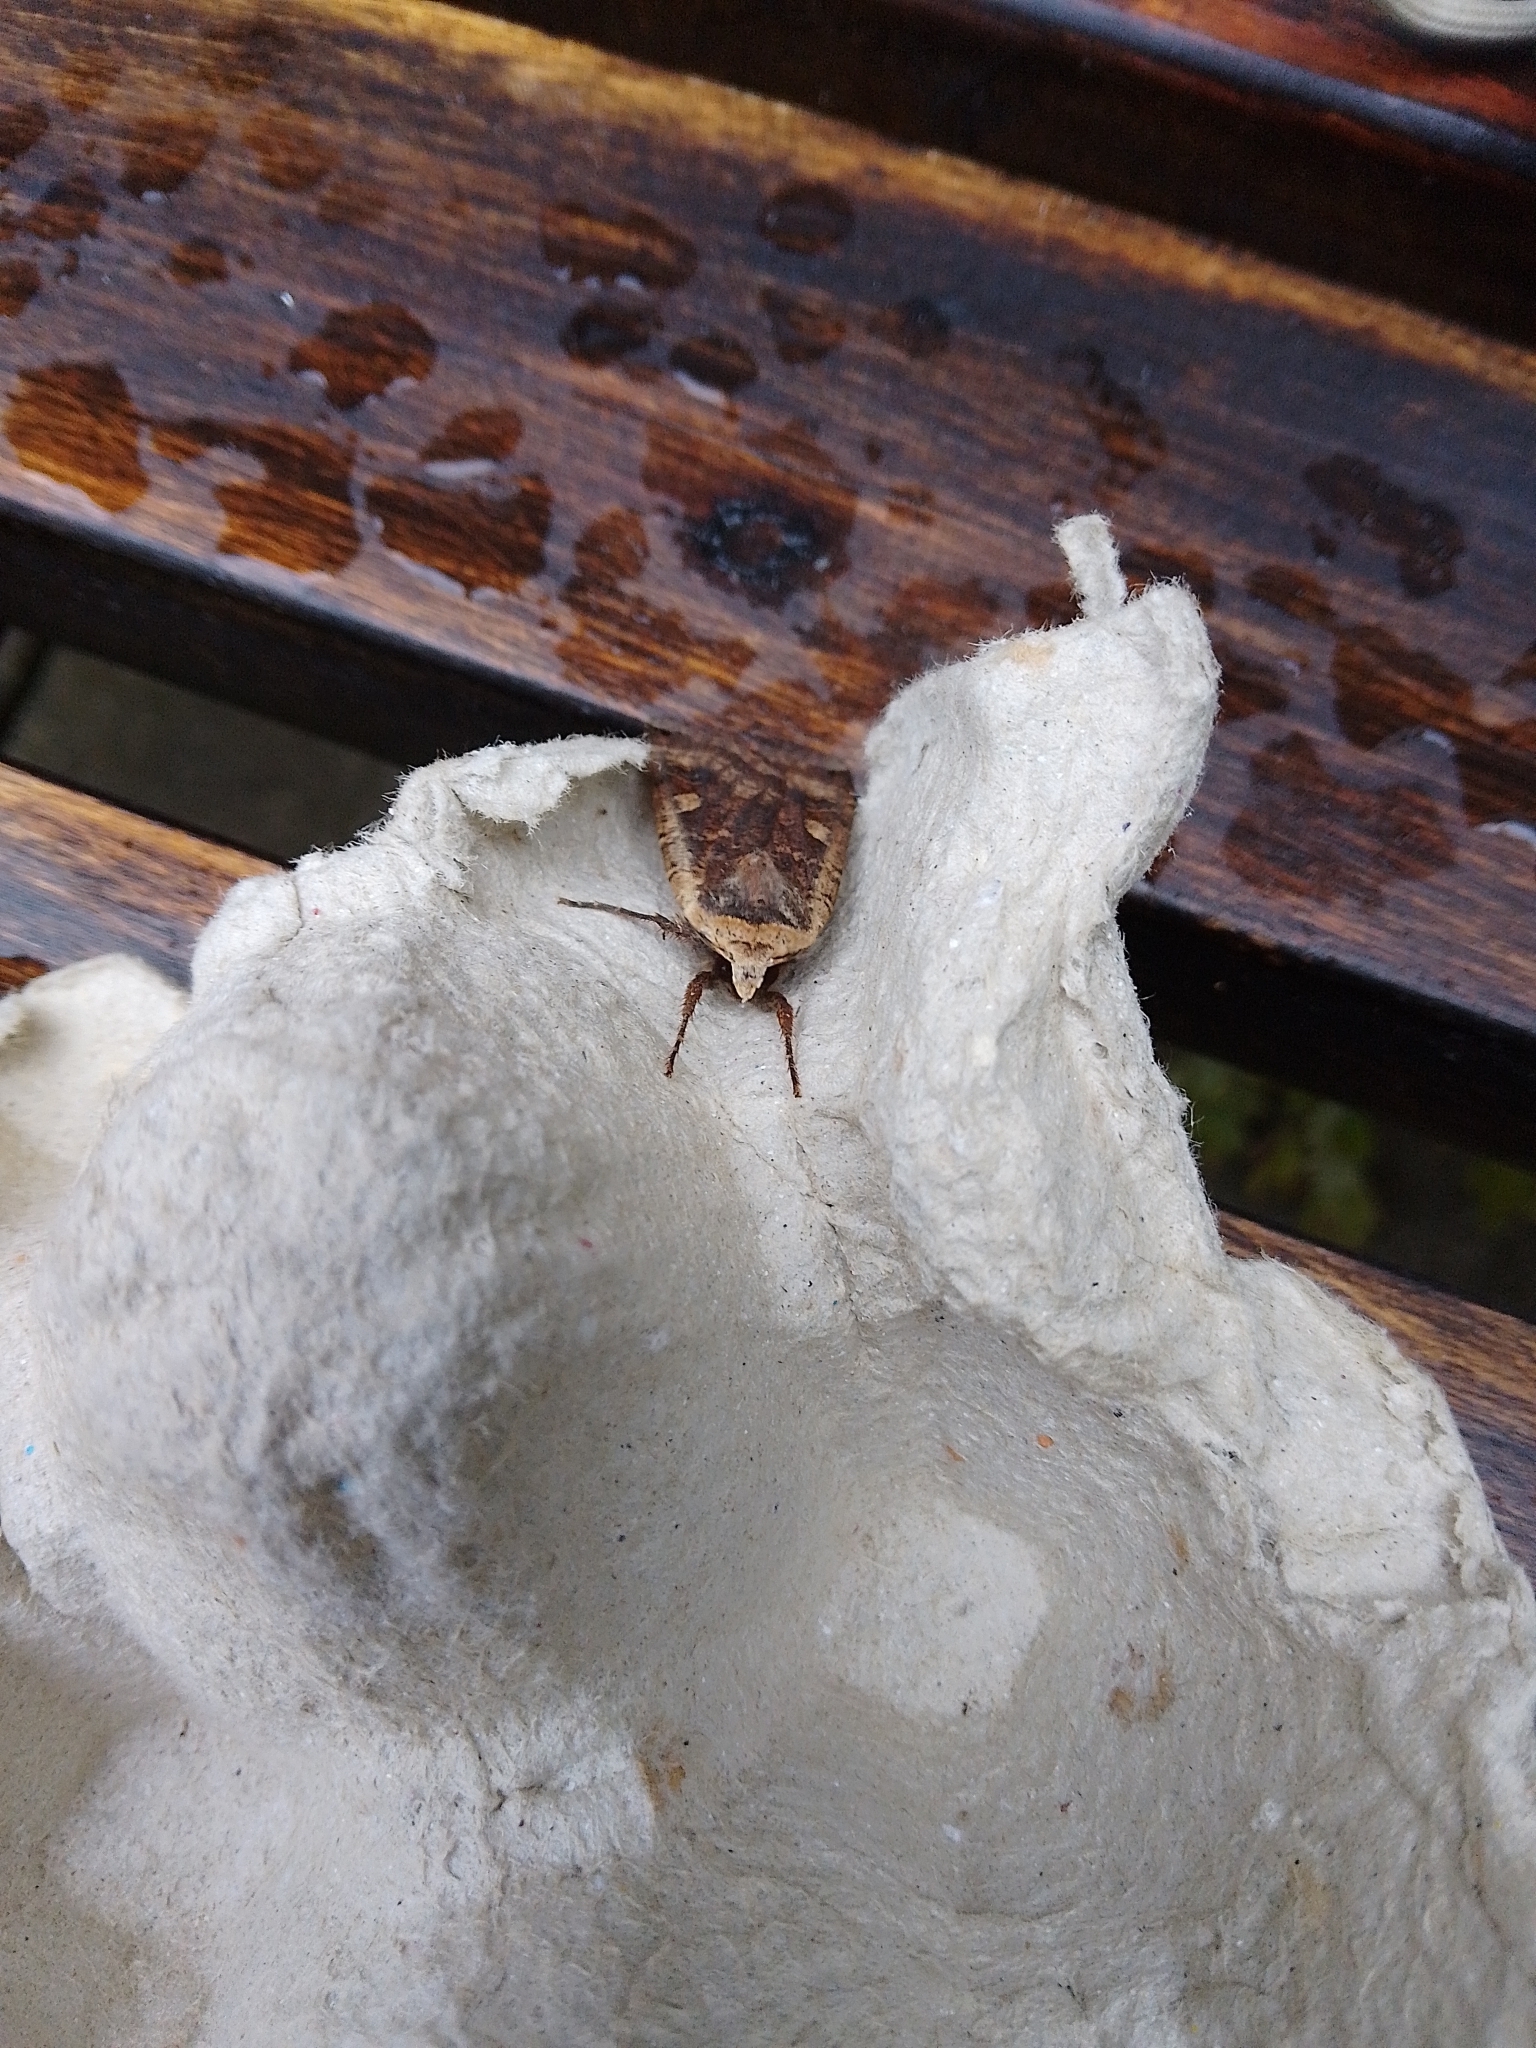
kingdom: Animalia
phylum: Arthropoda
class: Insecta
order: Lepidoptera
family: Noctuidae
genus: Noctua
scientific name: Noctua pronuba
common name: Large yellow underwing
